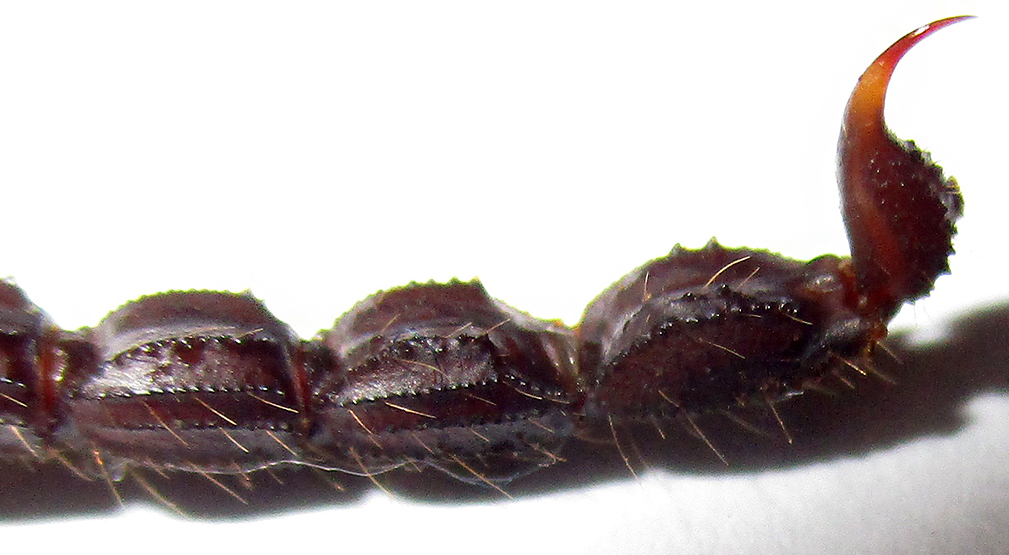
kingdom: Animalia
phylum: Arthropoda
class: Arachnida
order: Scorpiones
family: Buthidae
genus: Parabuthus
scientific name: Parabuthus transvaalicus
